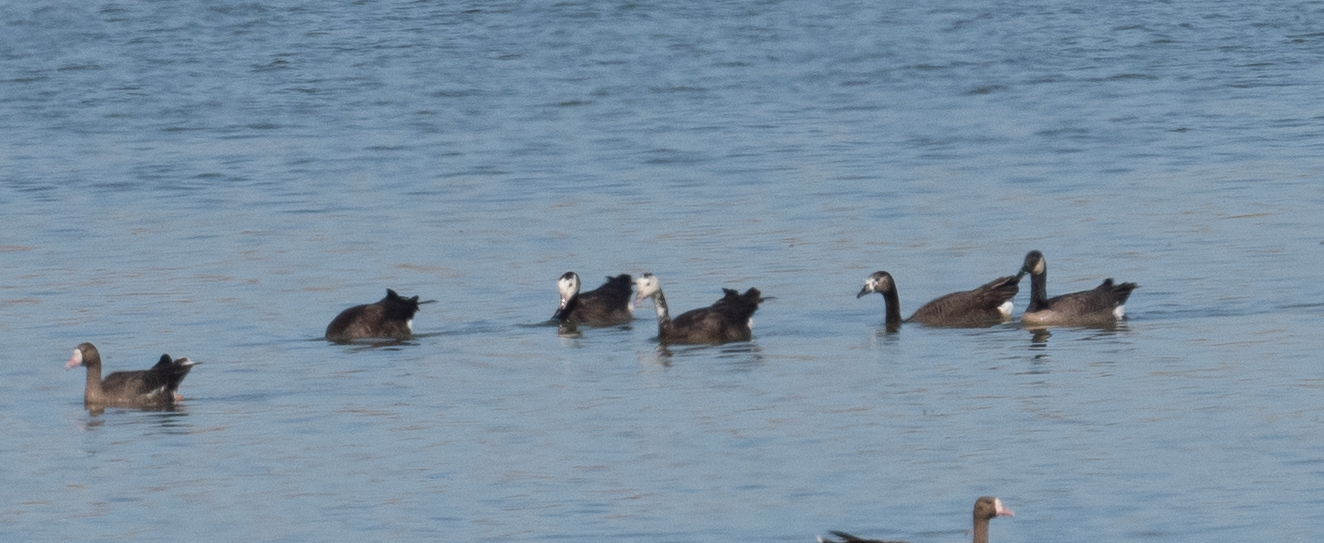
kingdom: Animalia
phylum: Chordata
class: Aves
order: Anseriformes
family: Anatidae
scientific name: Anatidae
